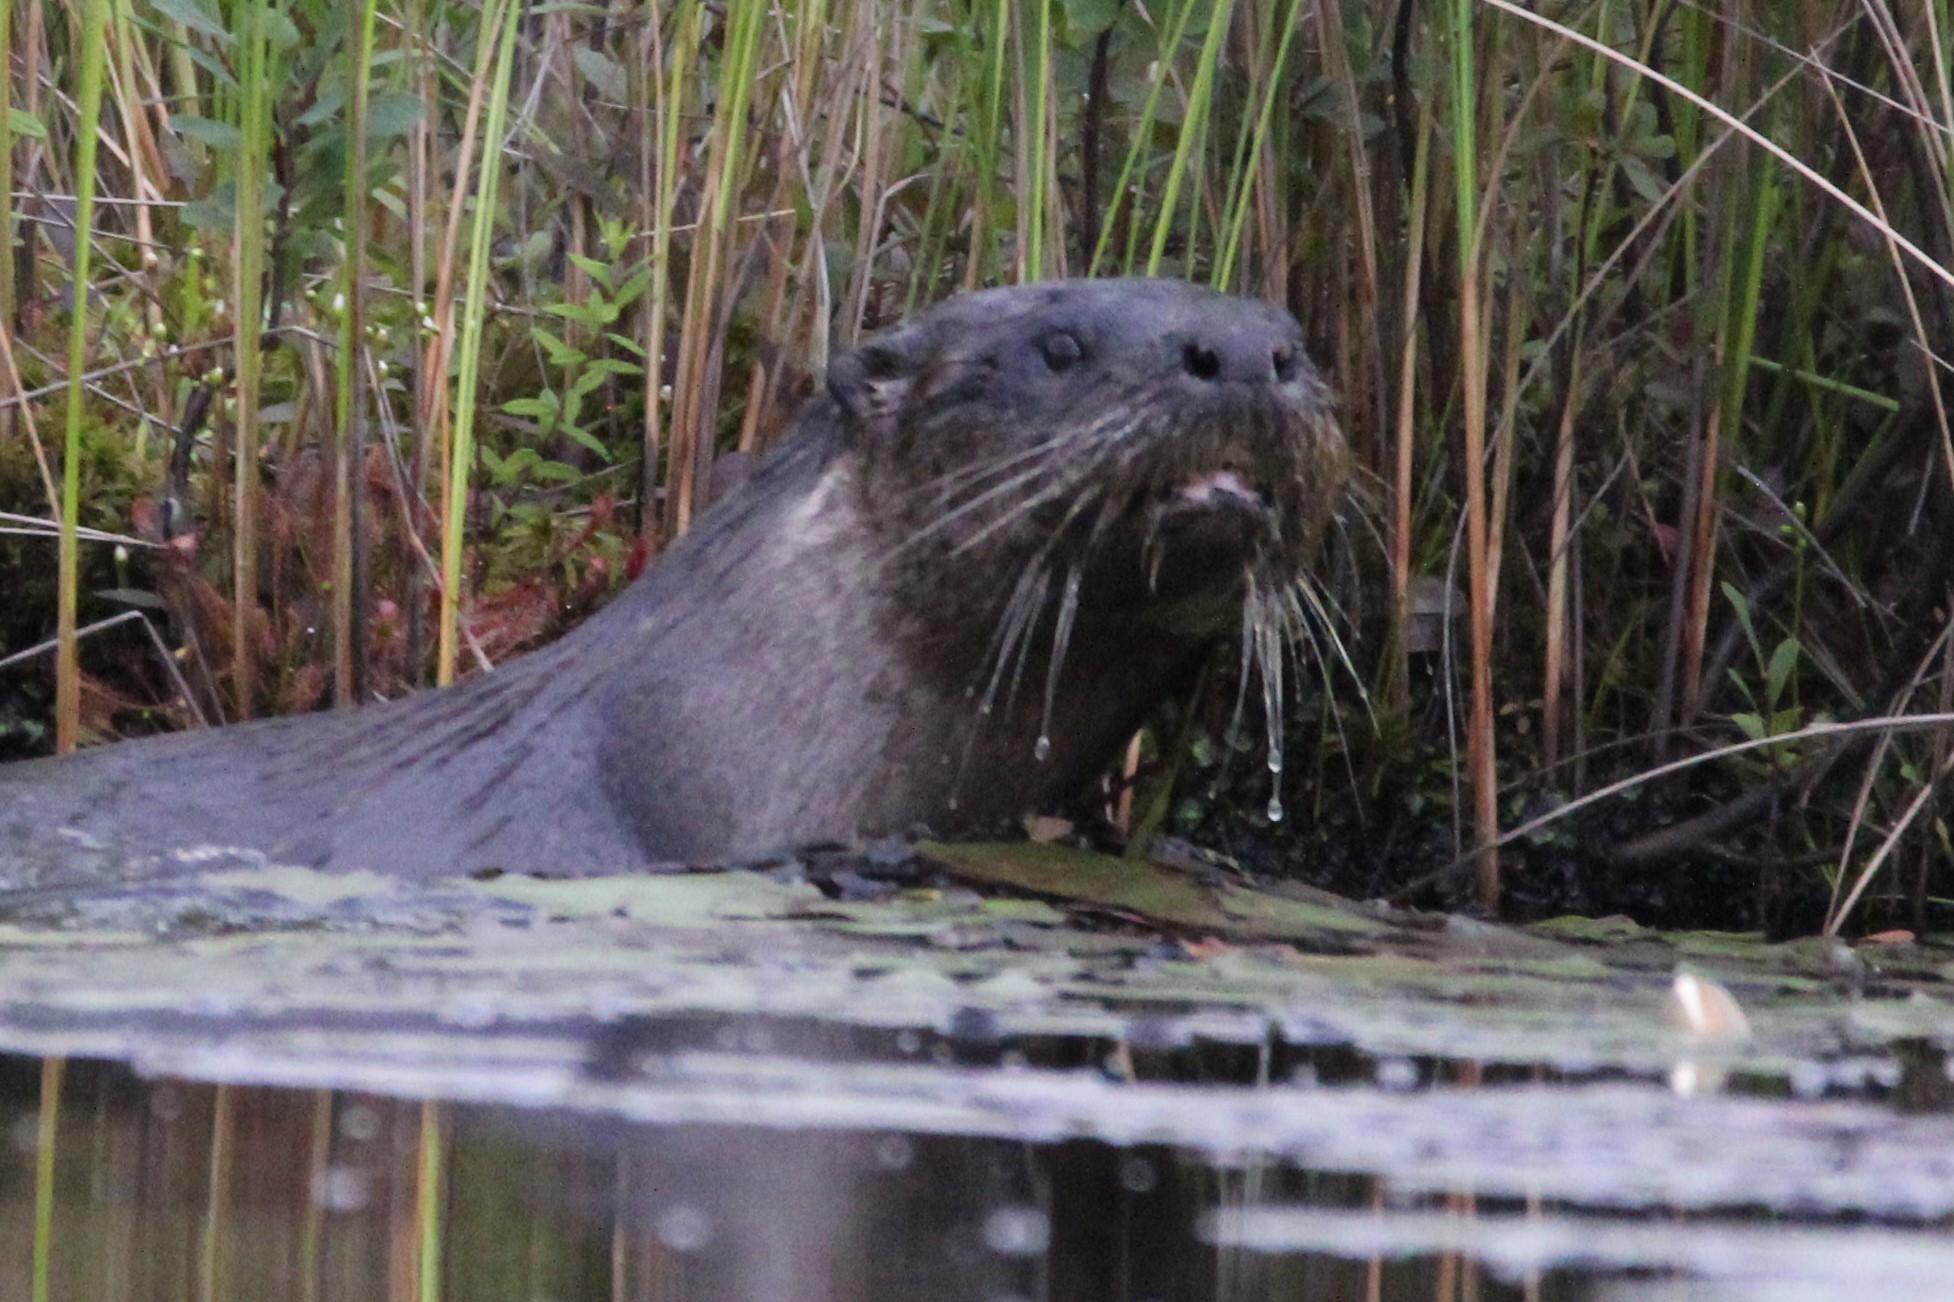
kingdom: Plantae
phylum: Tracheophyta
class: Magnoliopsida
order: Nymphaeales
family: Nymphaeaceae
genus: Nymphaea
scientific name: Nymphaea odorata
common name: Fragrant water-lily
